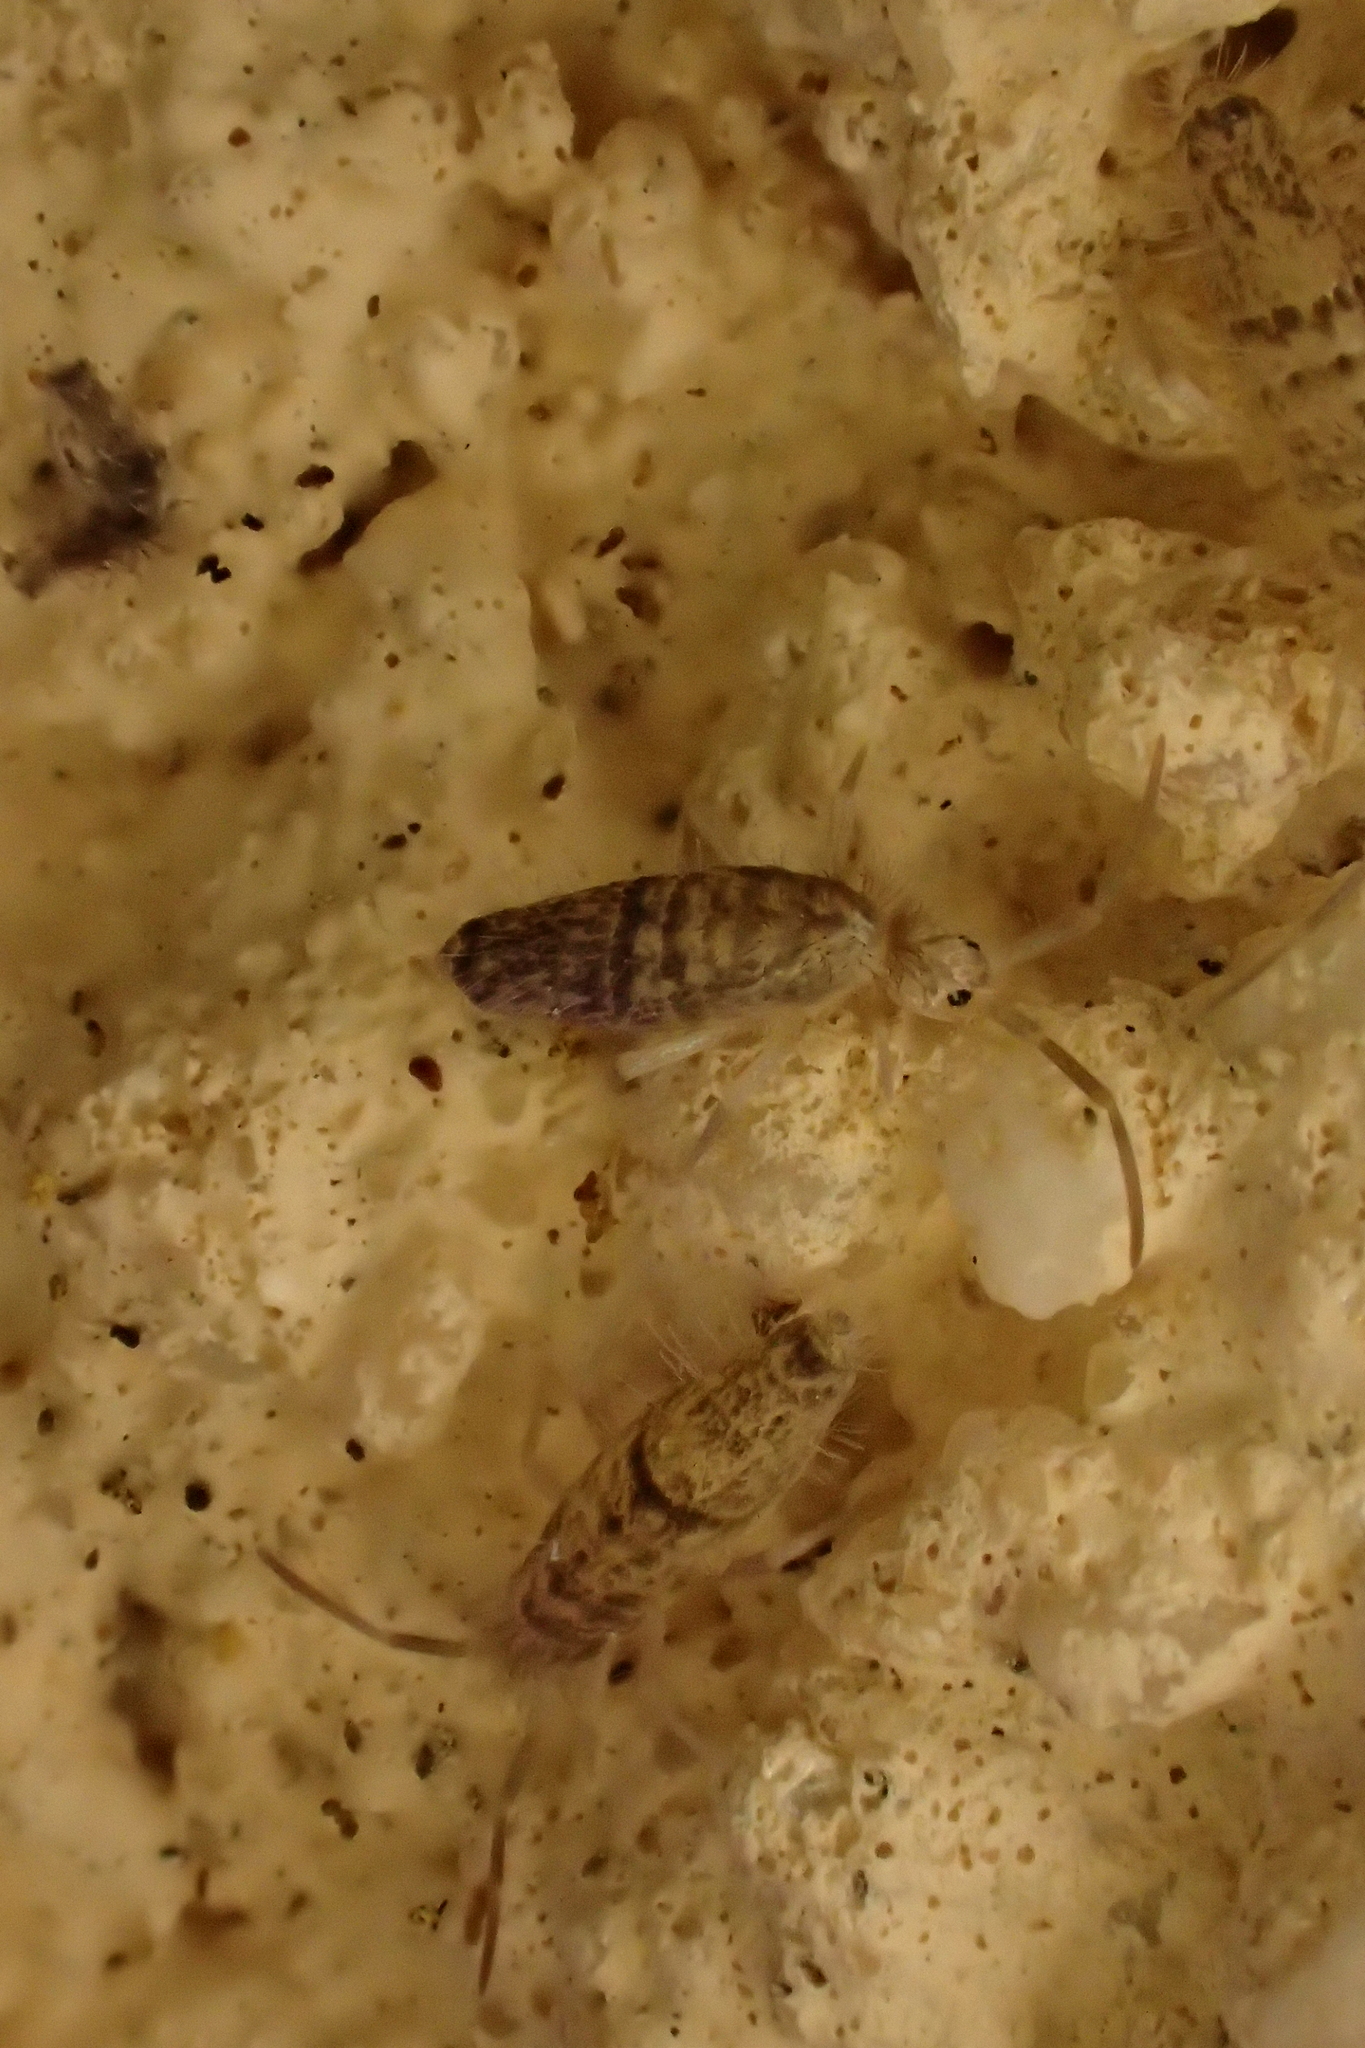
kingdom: Animalia
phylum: Arthropoda
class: Collembola
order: Entomobryomorpha
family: Entomobryidae
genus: Seira
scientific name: Seira musarum
